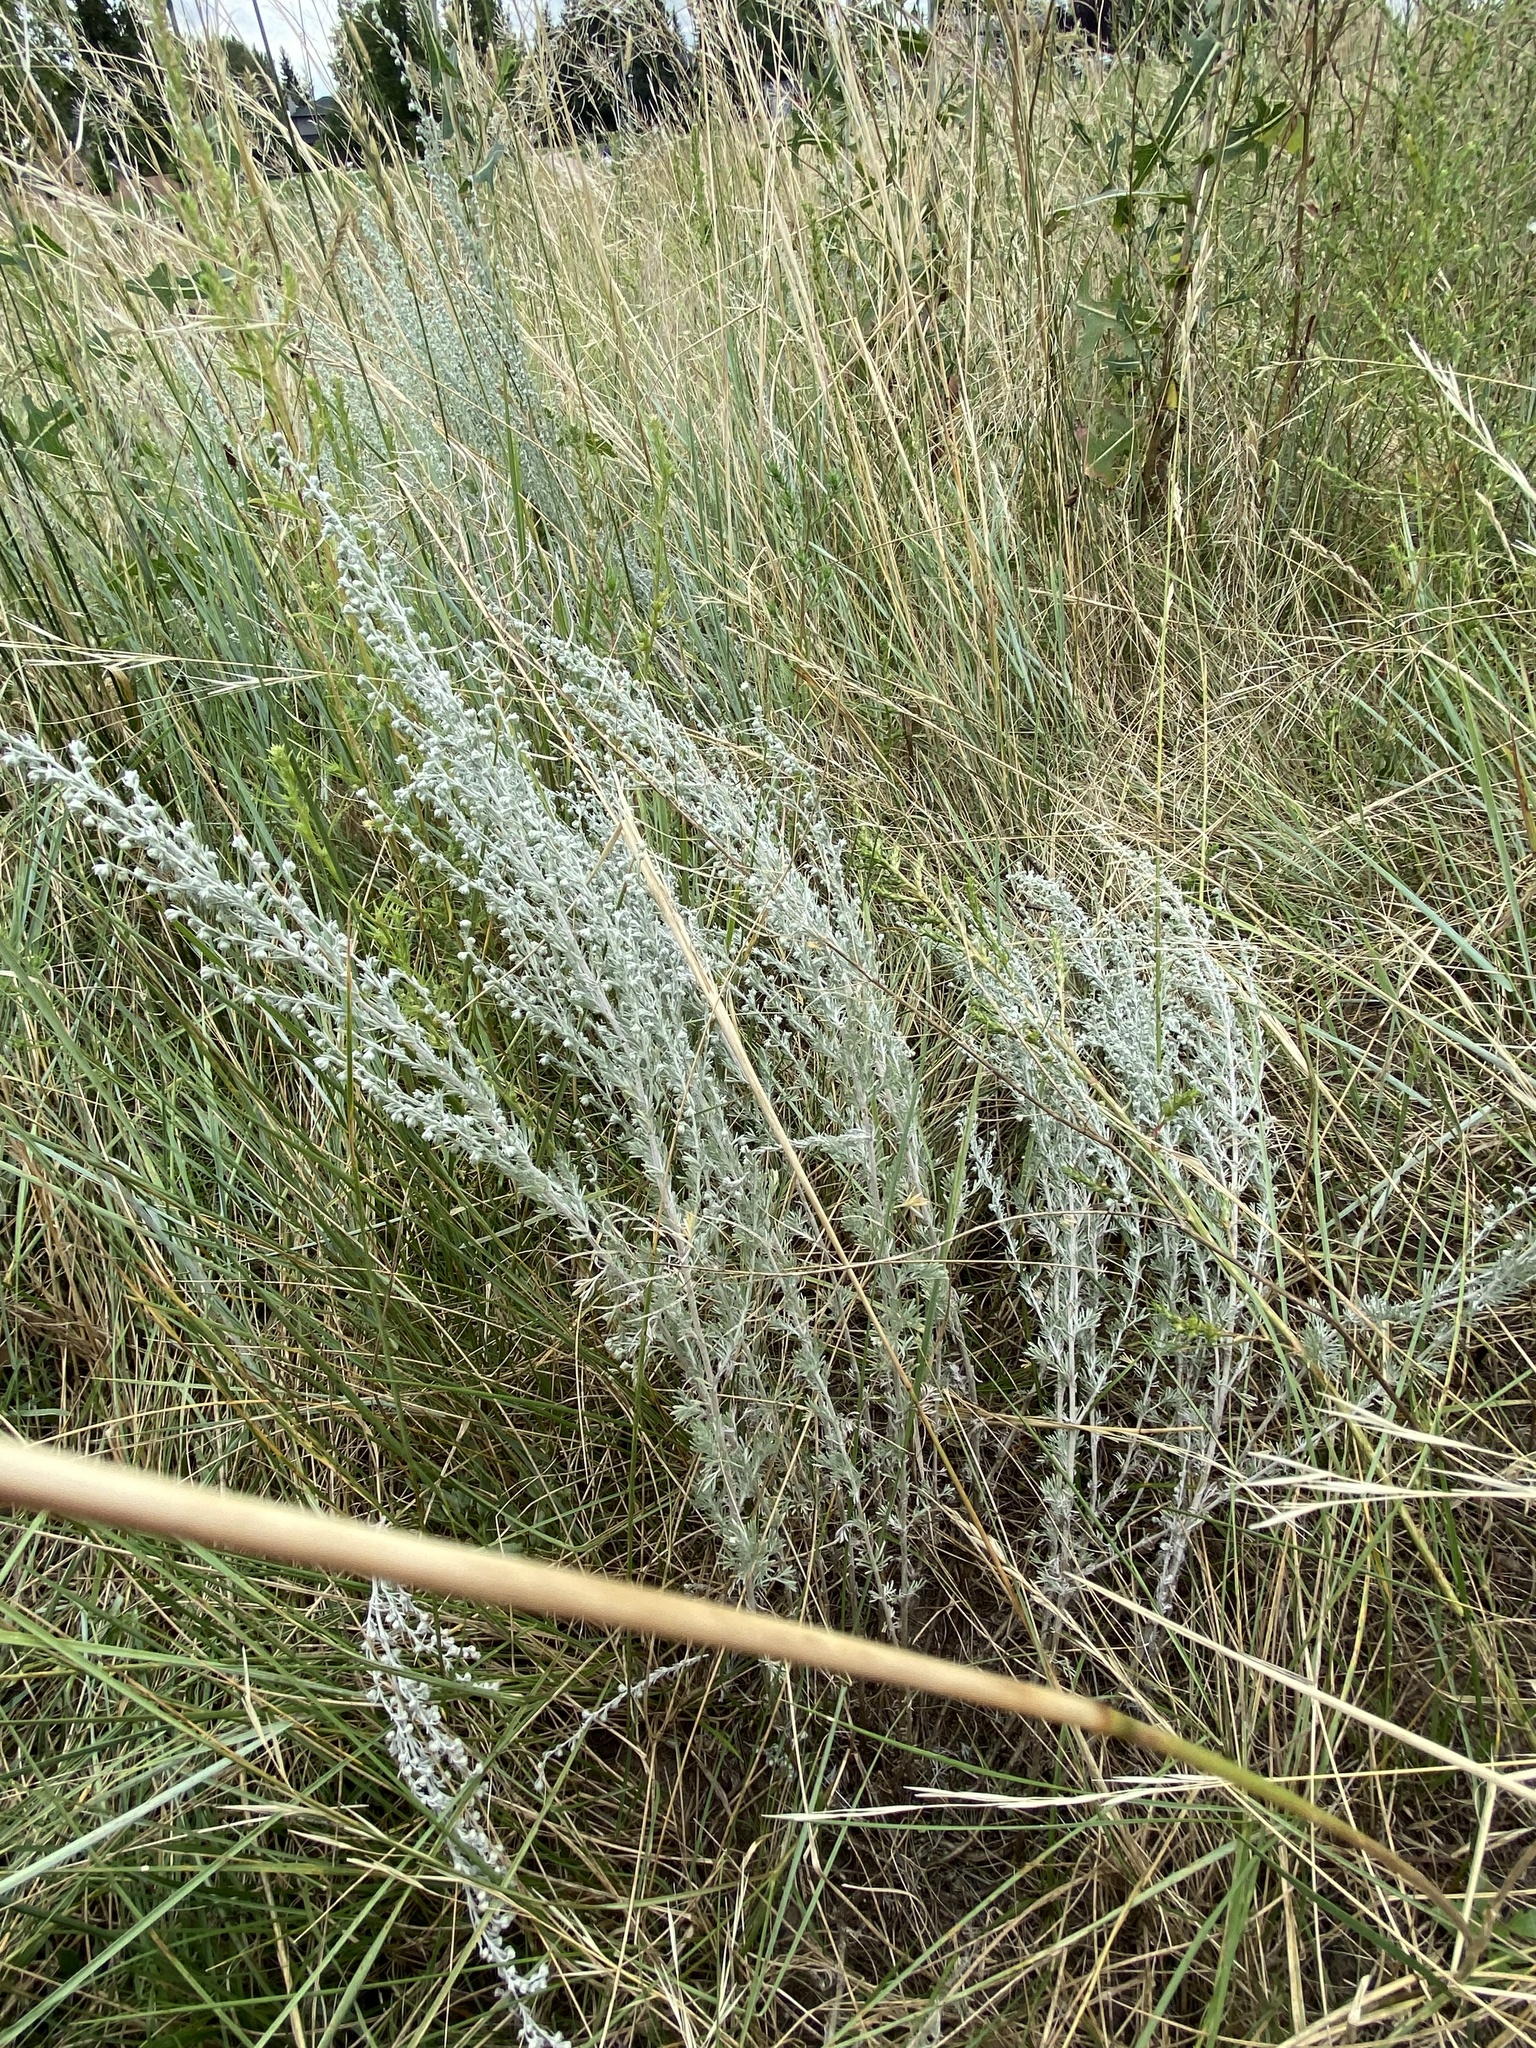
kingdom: Plantae
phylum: Tracheophyta
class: Magnoliopsida
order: Asterales
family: Asteraceae
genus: Artemisia
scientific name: Artemisia frigida
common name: Prairie sagewort
